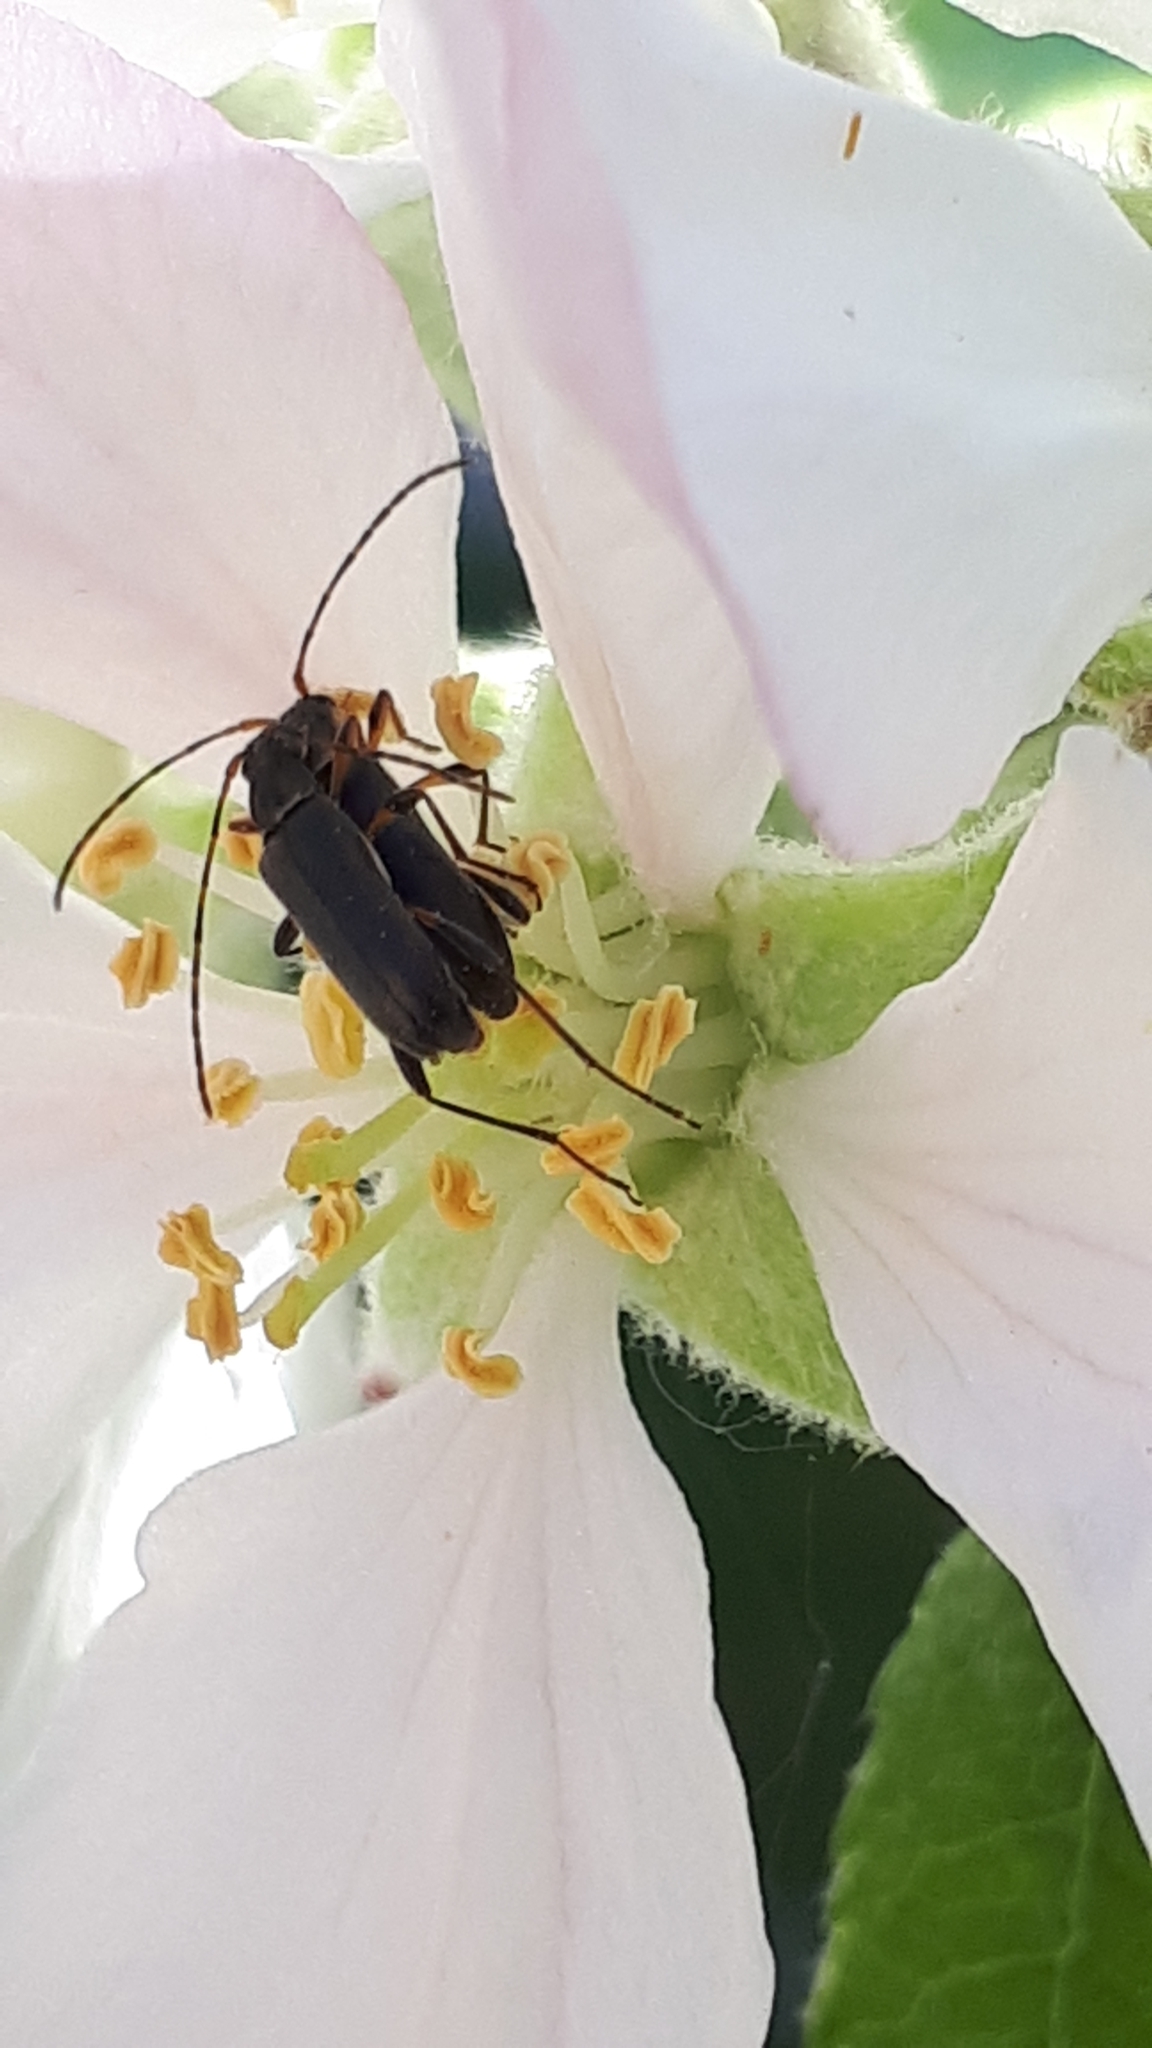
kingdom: Animalia
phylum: Arthropoda
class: Insecta
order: Coleoptera
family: Cerambycidae
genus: Grammoptera
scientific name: Grammoptera ruficornis
